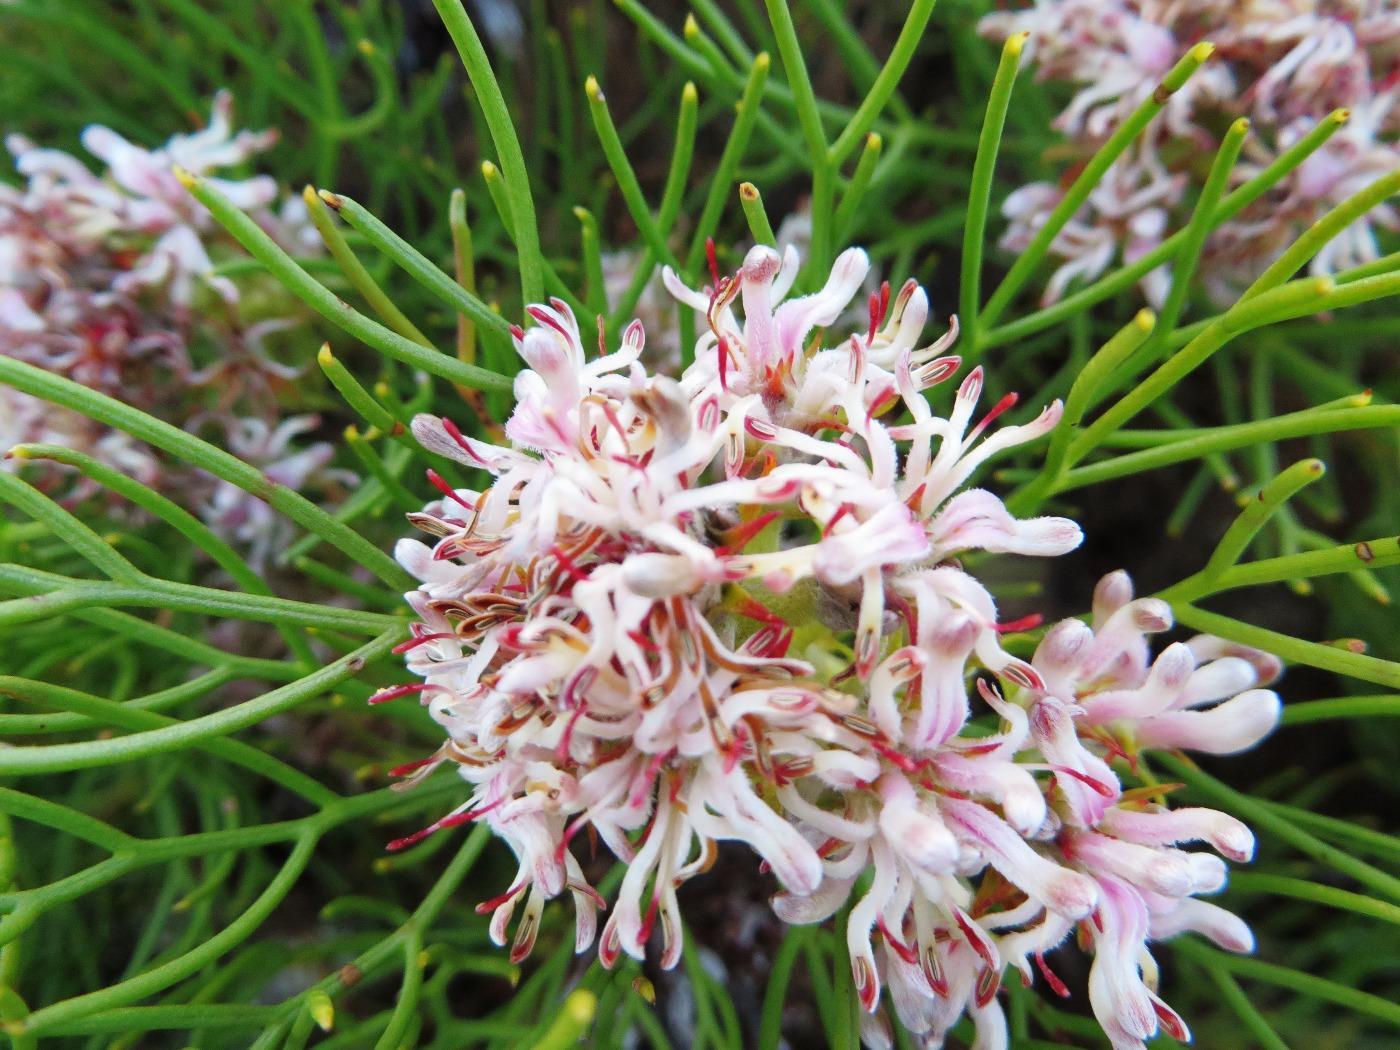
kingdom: Plantae
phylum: Tracheophyta
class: Magnoliopsida
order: Proteales
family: Proteaceae
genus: Serruria
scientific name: Serruria ascendens
